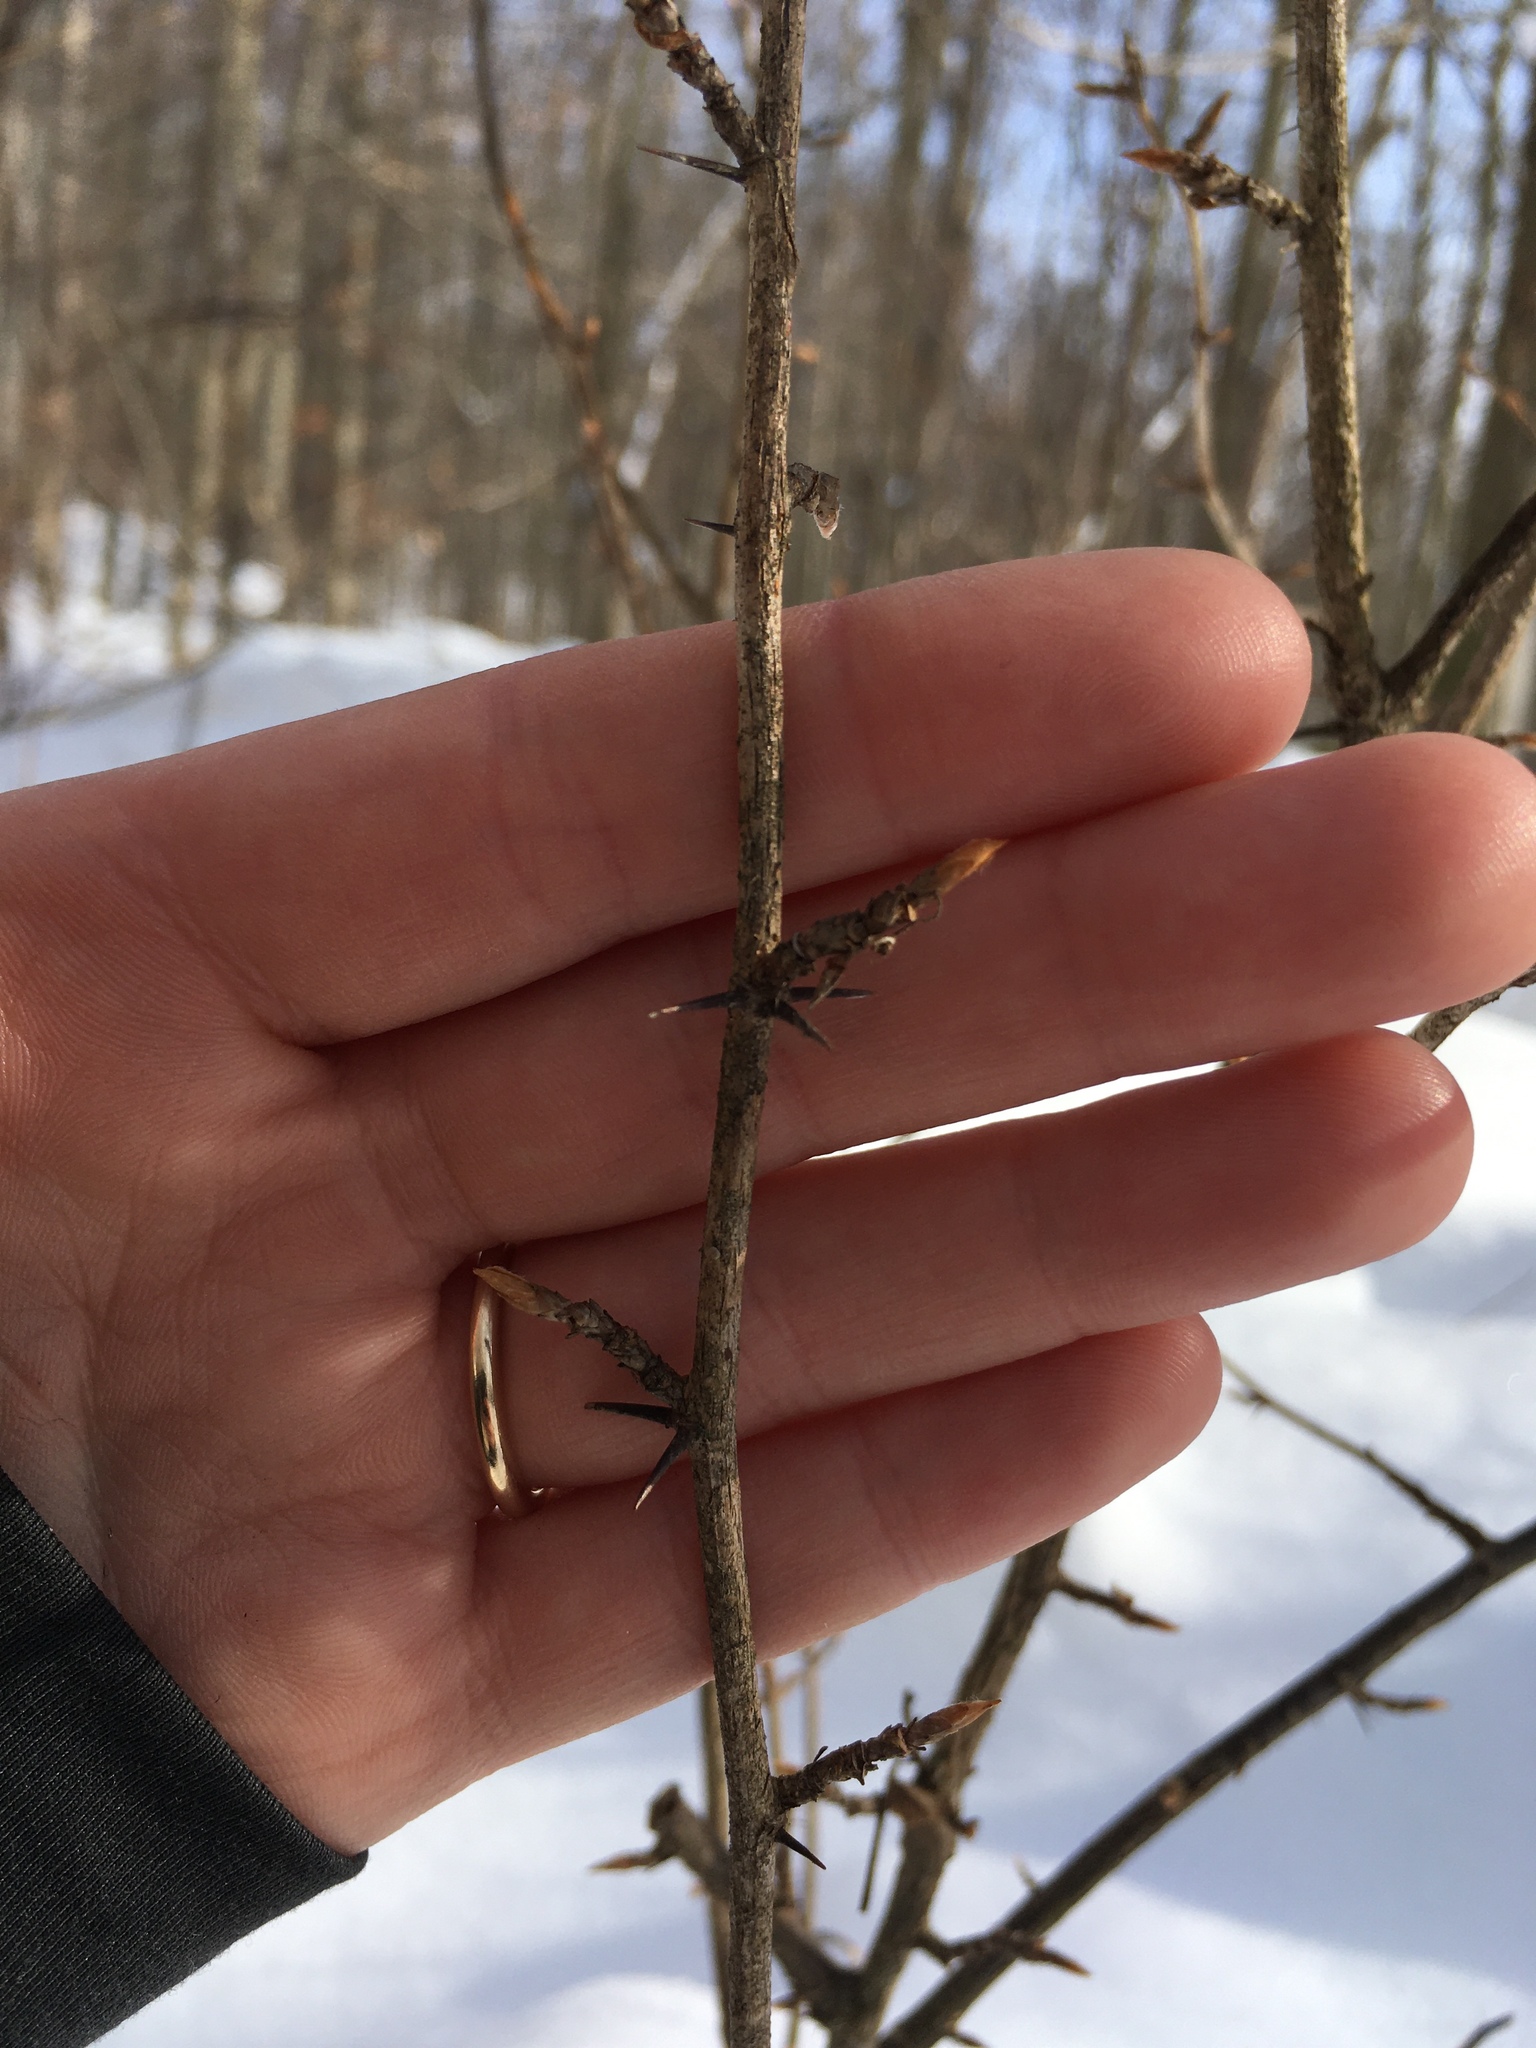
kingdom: Plantae
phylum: Tracheophyta
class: Magnoliopsida
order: Saxifragales
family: Grossulariaceae
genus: Ribes
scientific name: Ribes cynosbati
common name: American gooseberry
